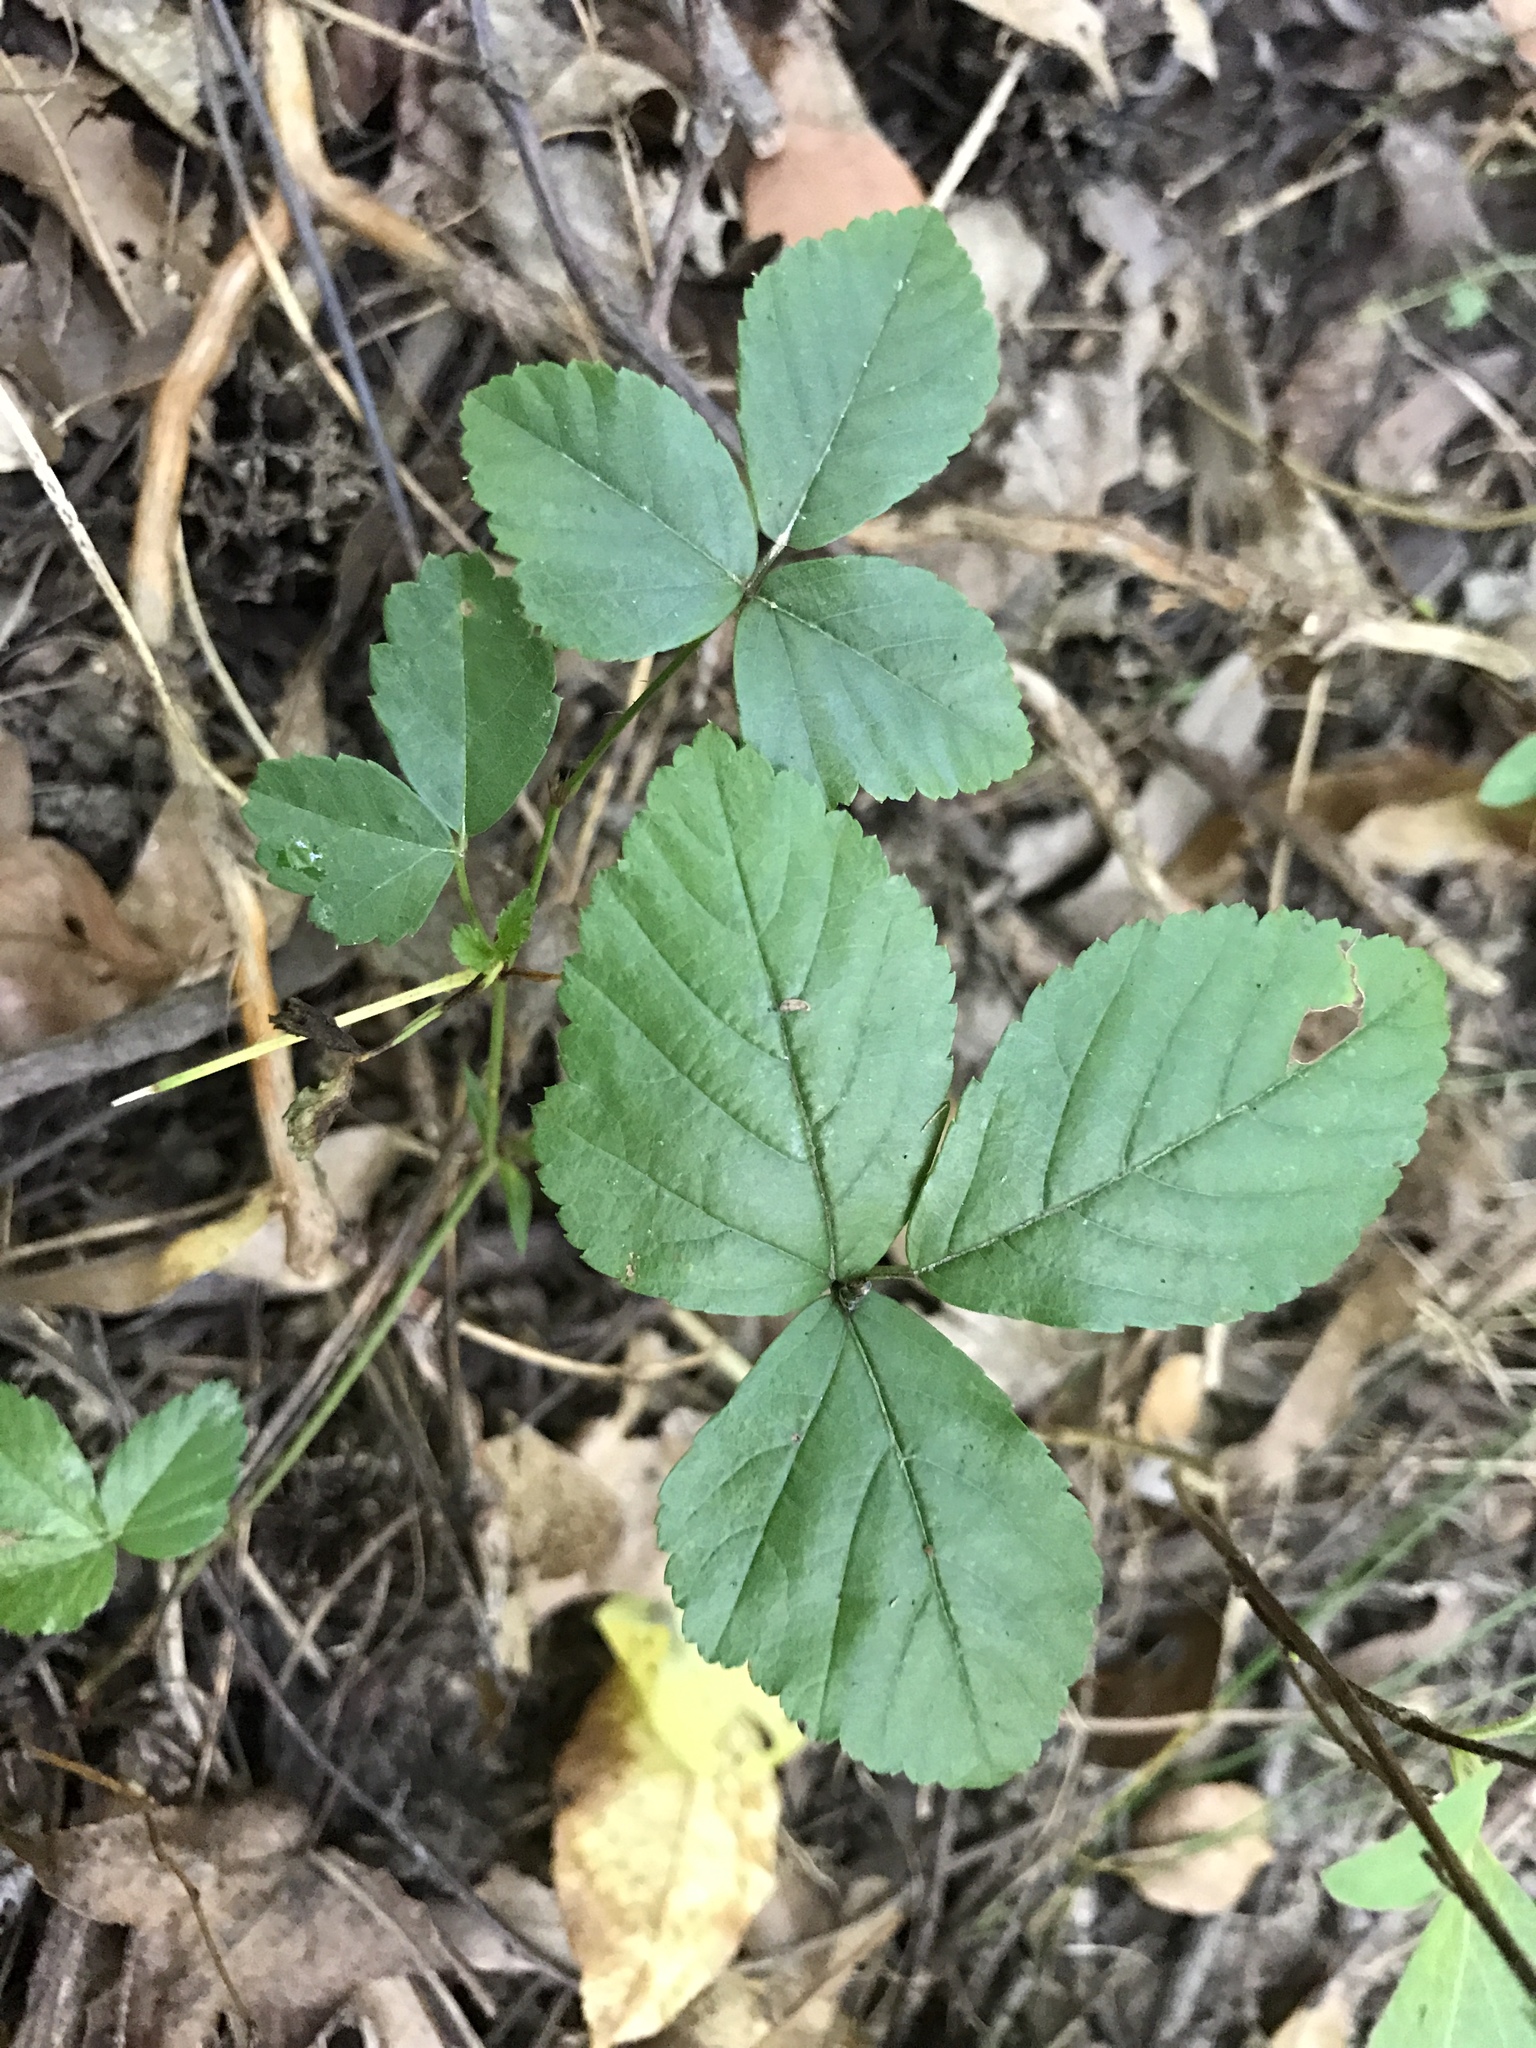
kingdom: Plantae
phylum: Tracheophyta
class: Magnoliopsida
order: Rosales
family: Rosaceae
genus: Rubus
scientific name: Rubus flagellaris
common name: American dewberry
